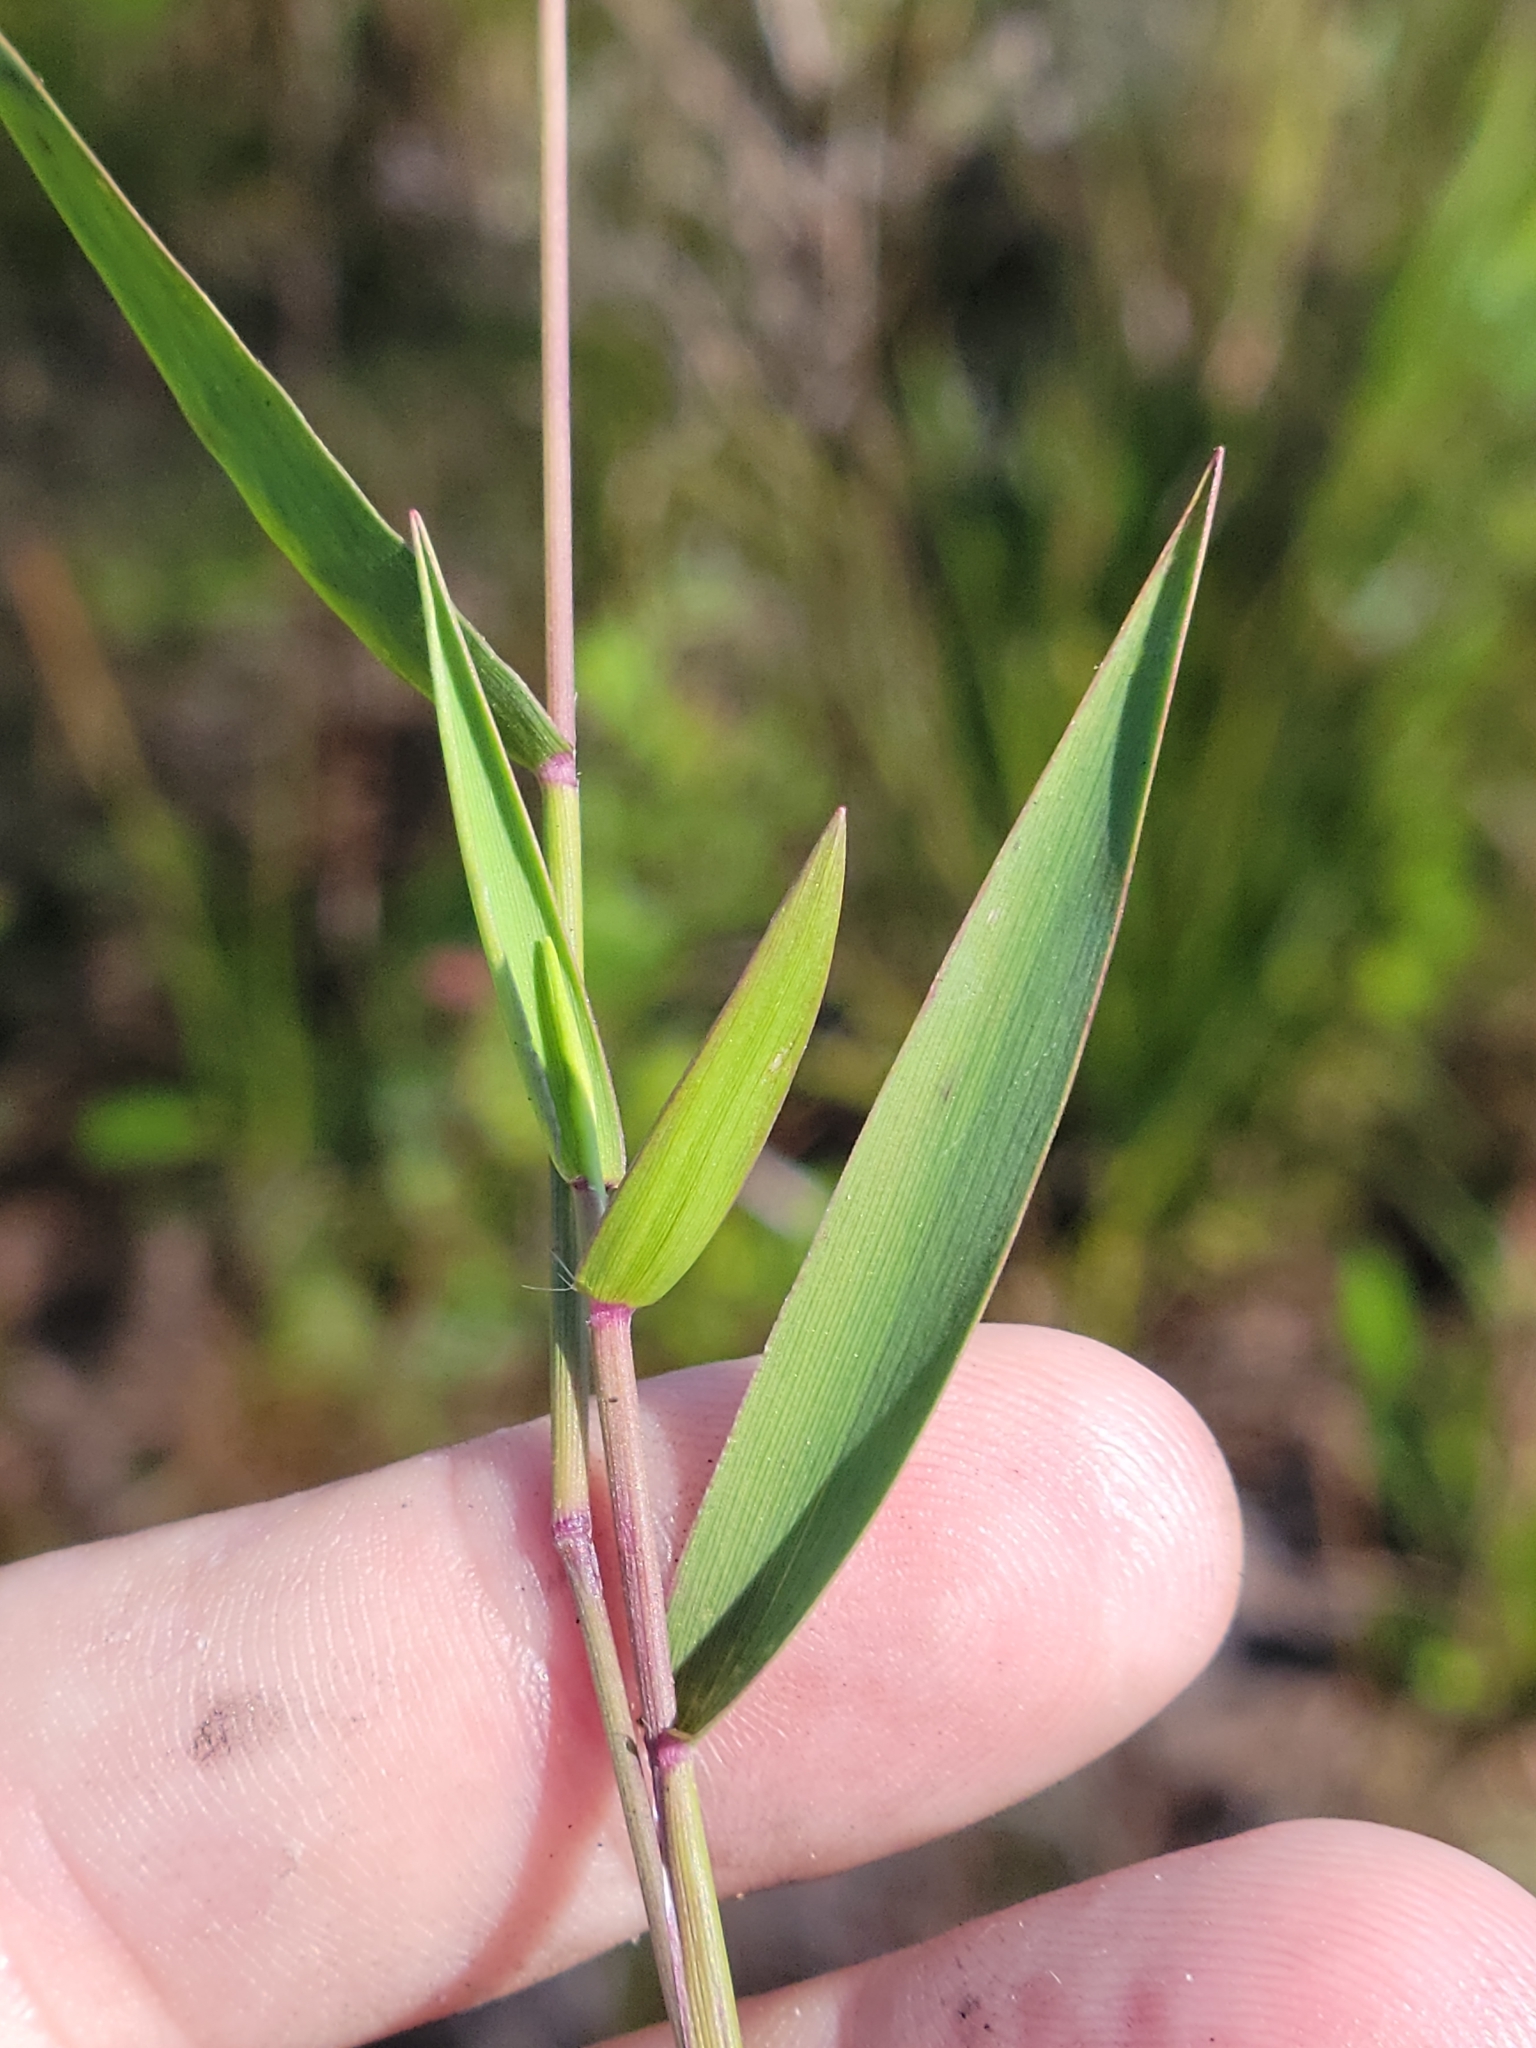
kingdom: Plantae
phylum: Tracheophyta
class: Liliopsida
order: Poales
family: Poaceae
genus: Dichanthelium
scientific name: Dichanthelium portoricense
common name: American panicgrass
